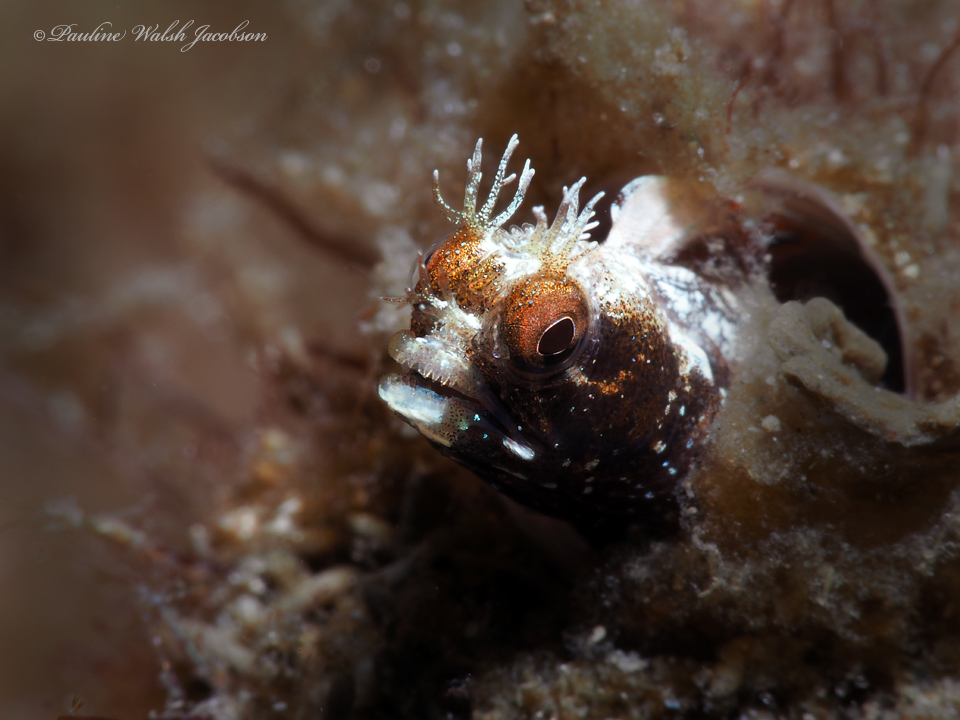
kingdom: Animalia
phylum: Chordata
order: Perciformes
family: Chaenopsidae
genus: Acanthemblemaria
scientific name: Acanthemblemaria aspera
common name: Roughhead blenny
